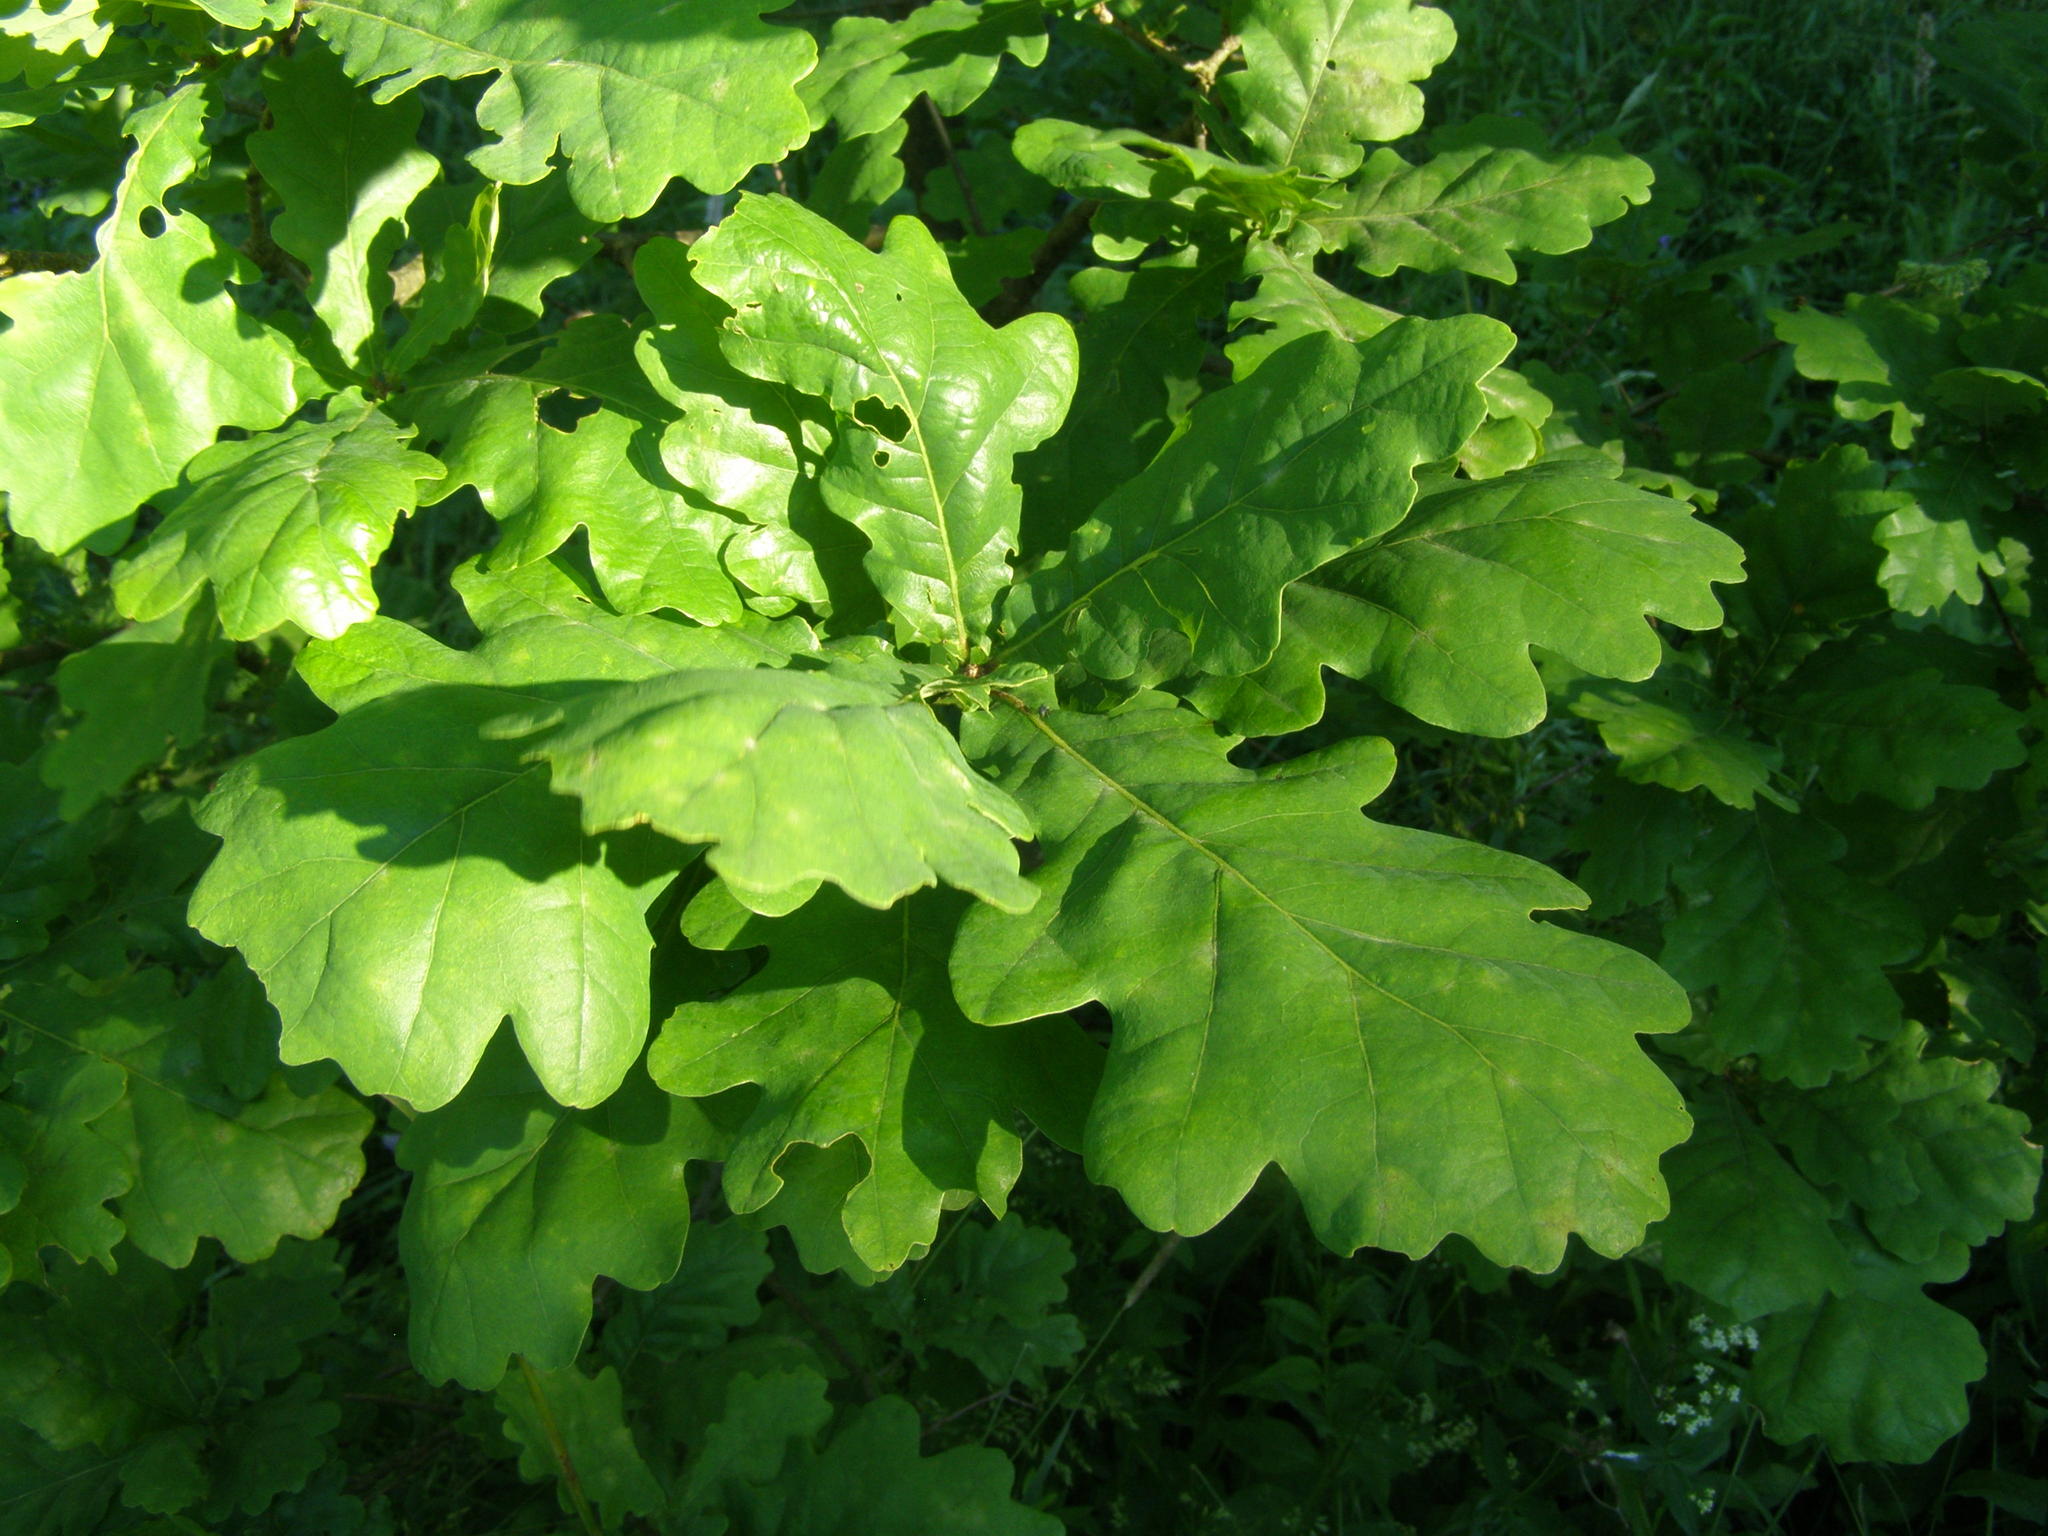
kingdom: Plantae
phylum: Tracheophyta
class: Magnoliopsida
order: Fagales
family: Fagaceae
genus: Quercus
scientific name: Quercus robur
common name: Pedunculate oak
